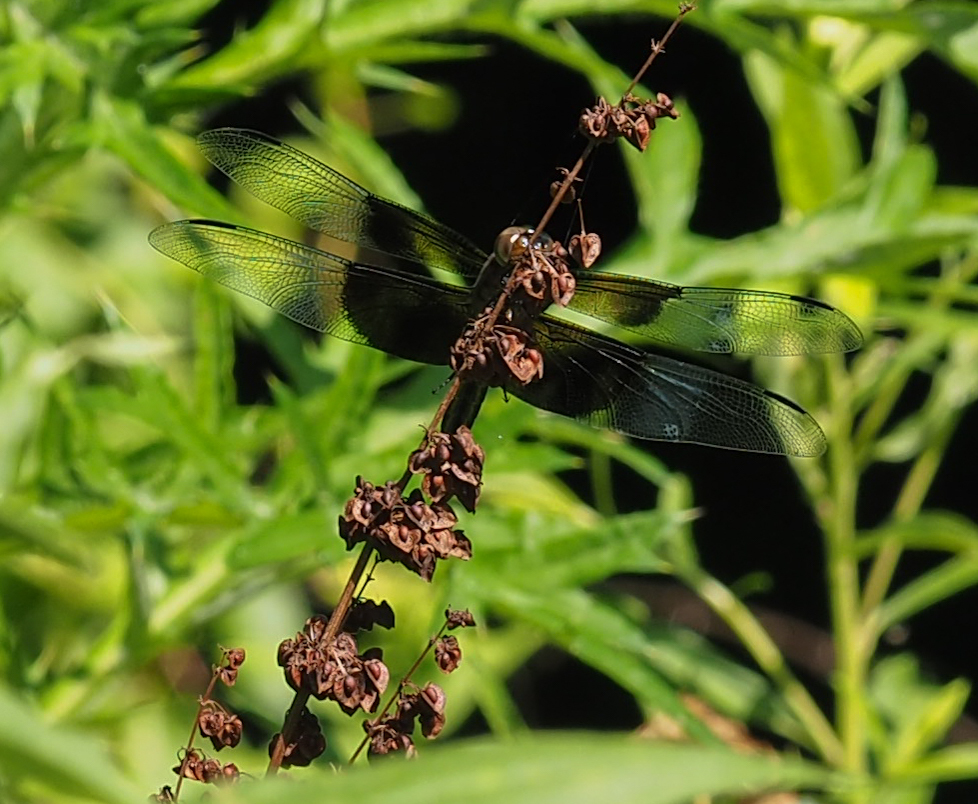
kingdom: Animalia
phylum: Arthropoda
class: Insecta
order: Odonata
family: Libellulidae
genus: Libellula
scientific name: Libellula luctuosa
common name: Widow skimmer
